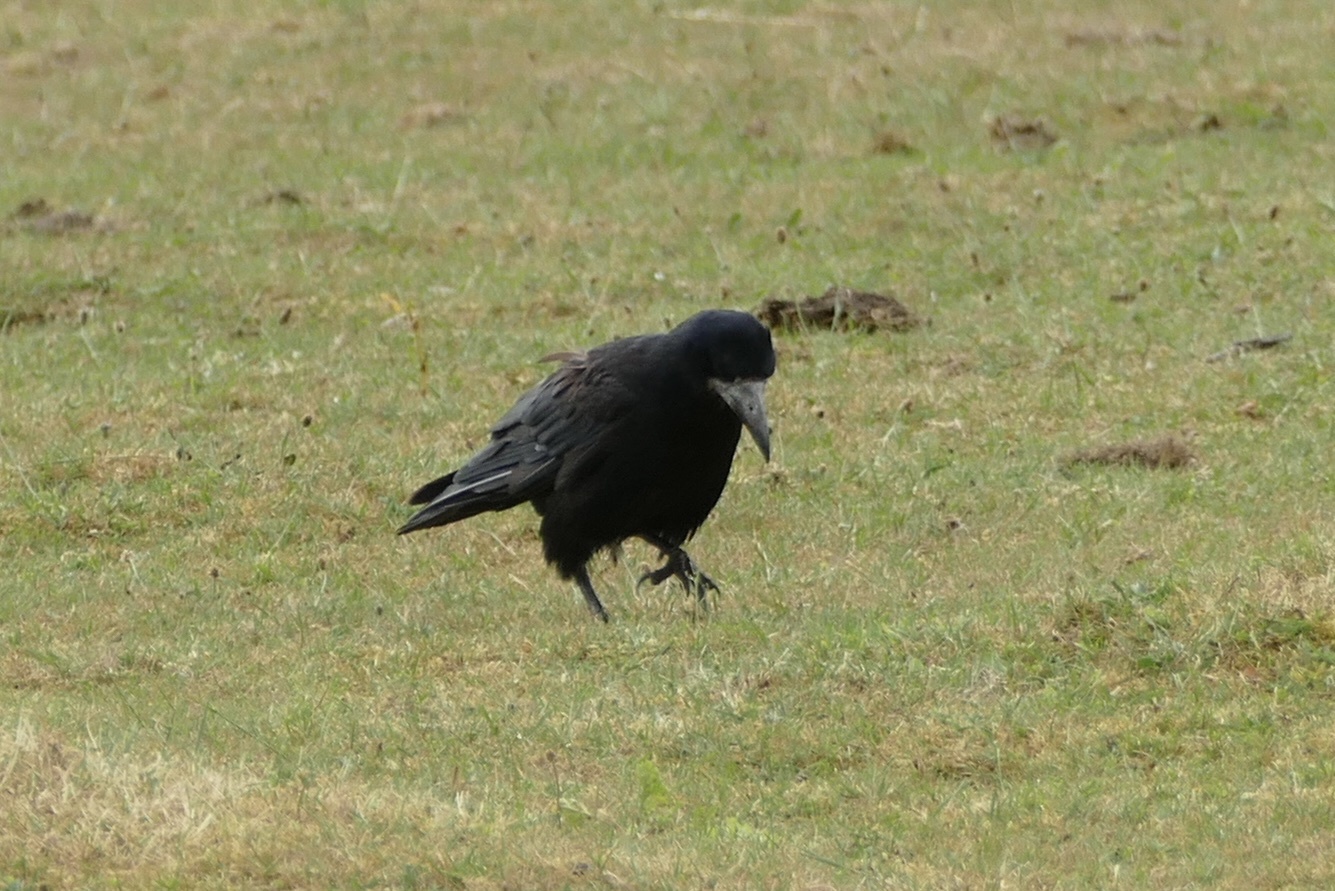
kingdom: Animalia
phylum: Chordata
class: Aves
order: Passeriformes
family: Corvidae
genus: Corvus
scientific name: Corvus frugilegus
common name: Rook
